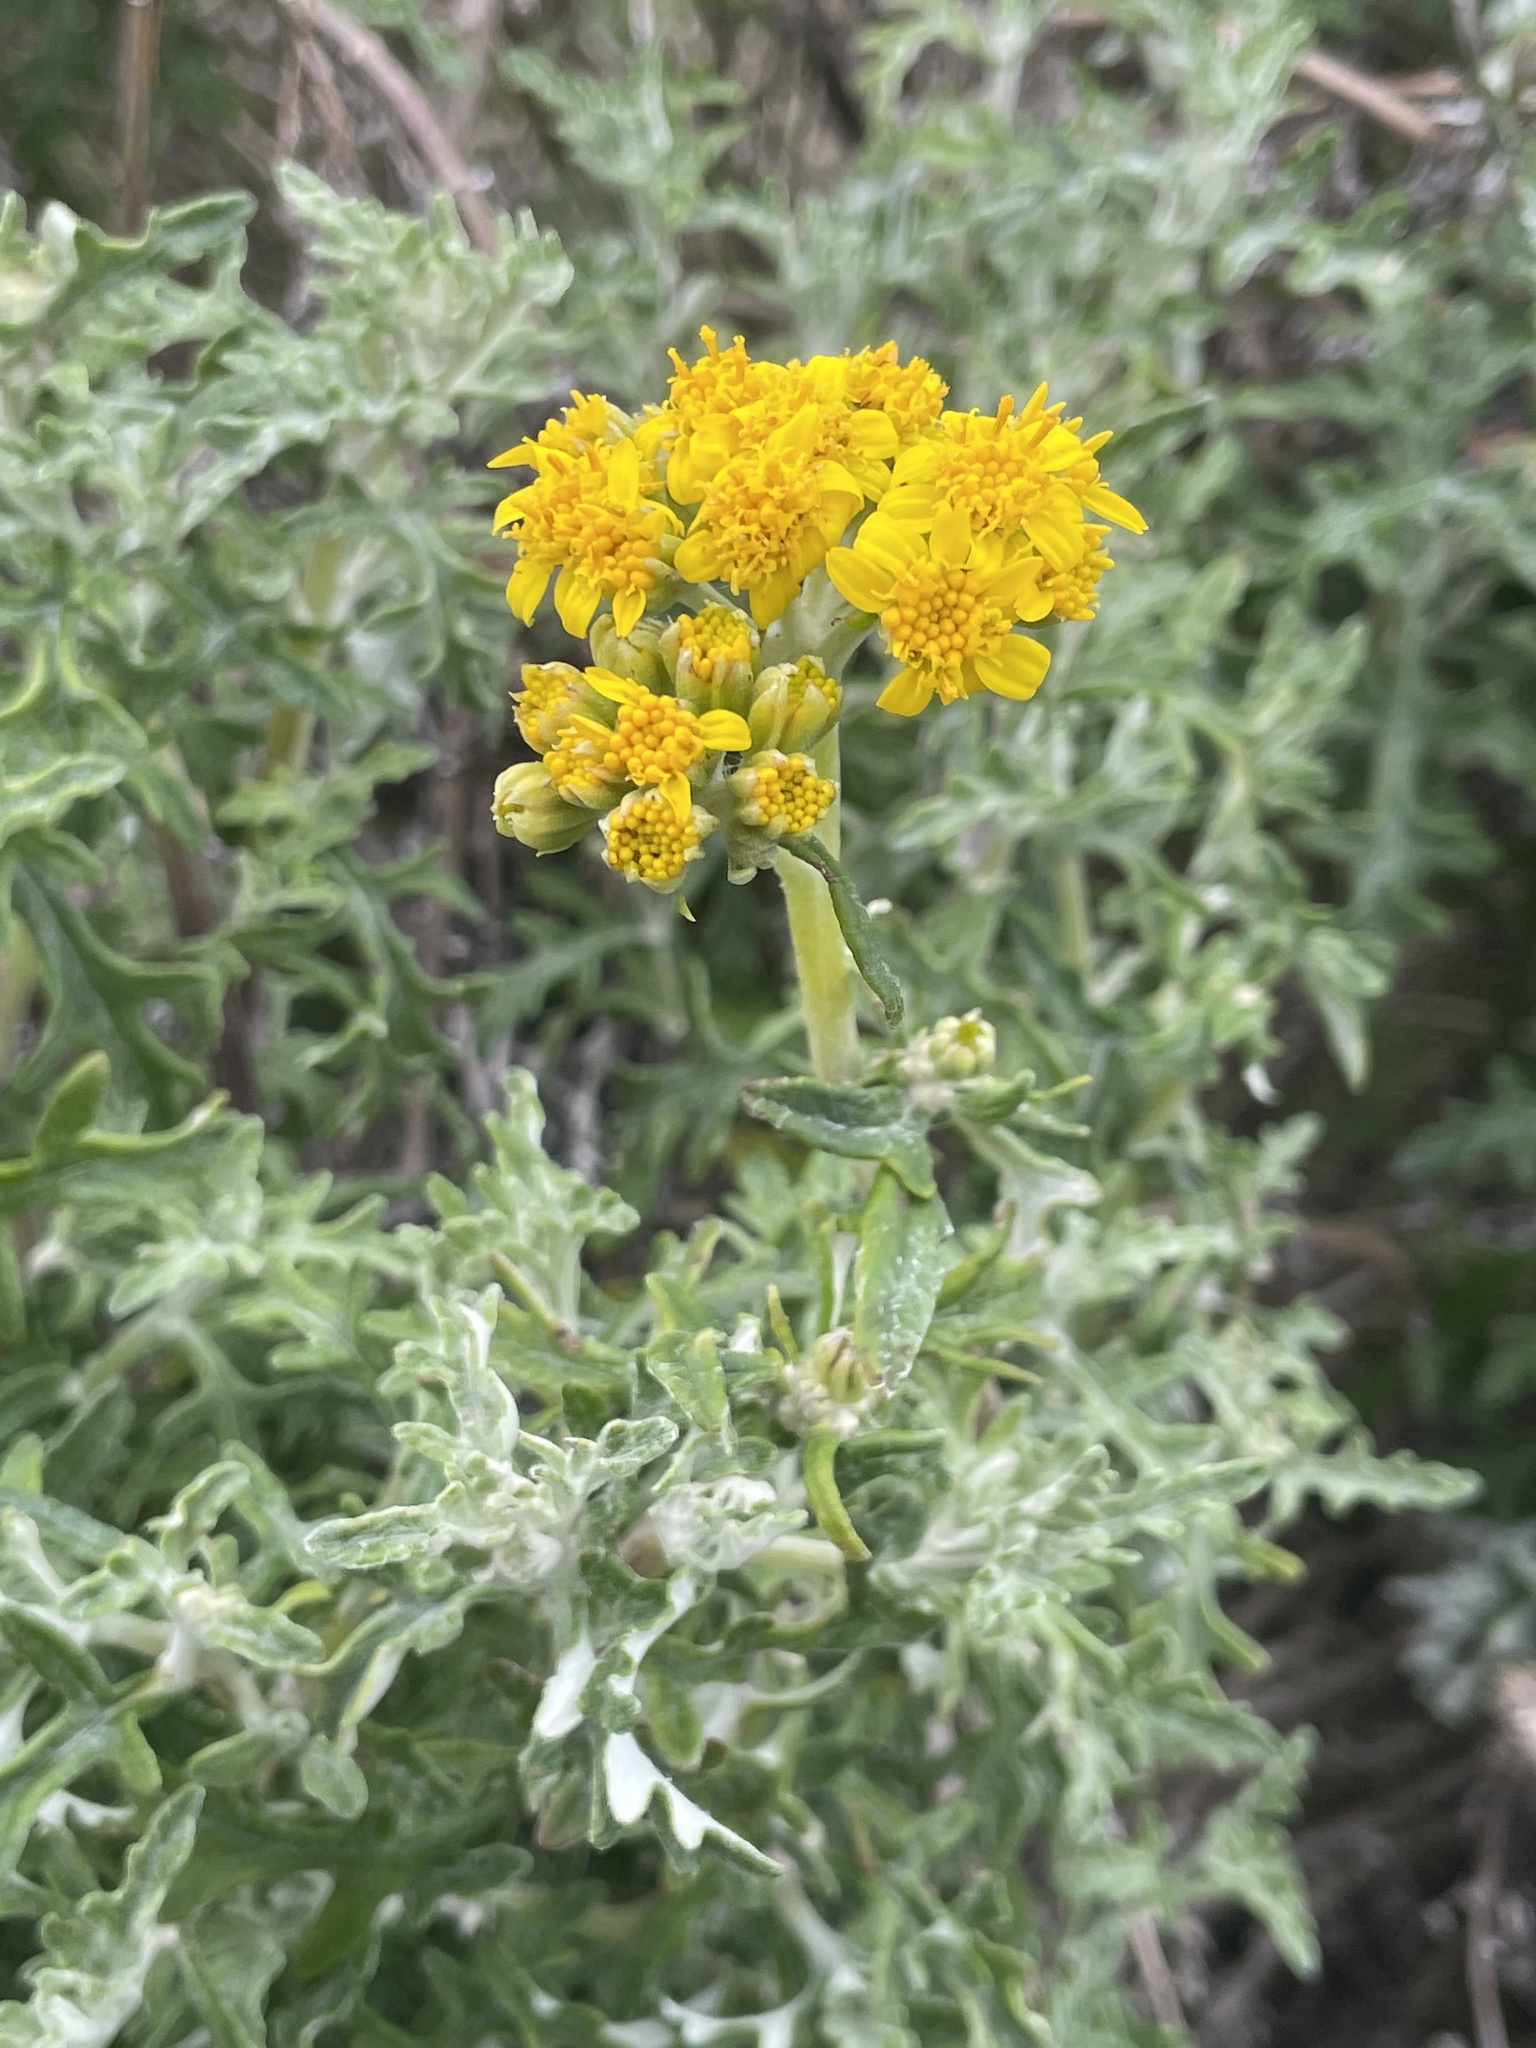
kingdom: Plantae
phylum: Tracheophyta
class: Magnoliopsida
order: Asterales
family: Asteraceae
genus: Eriophyllum
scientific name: Eriophyllum staechadifolium
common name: Lizardtail
